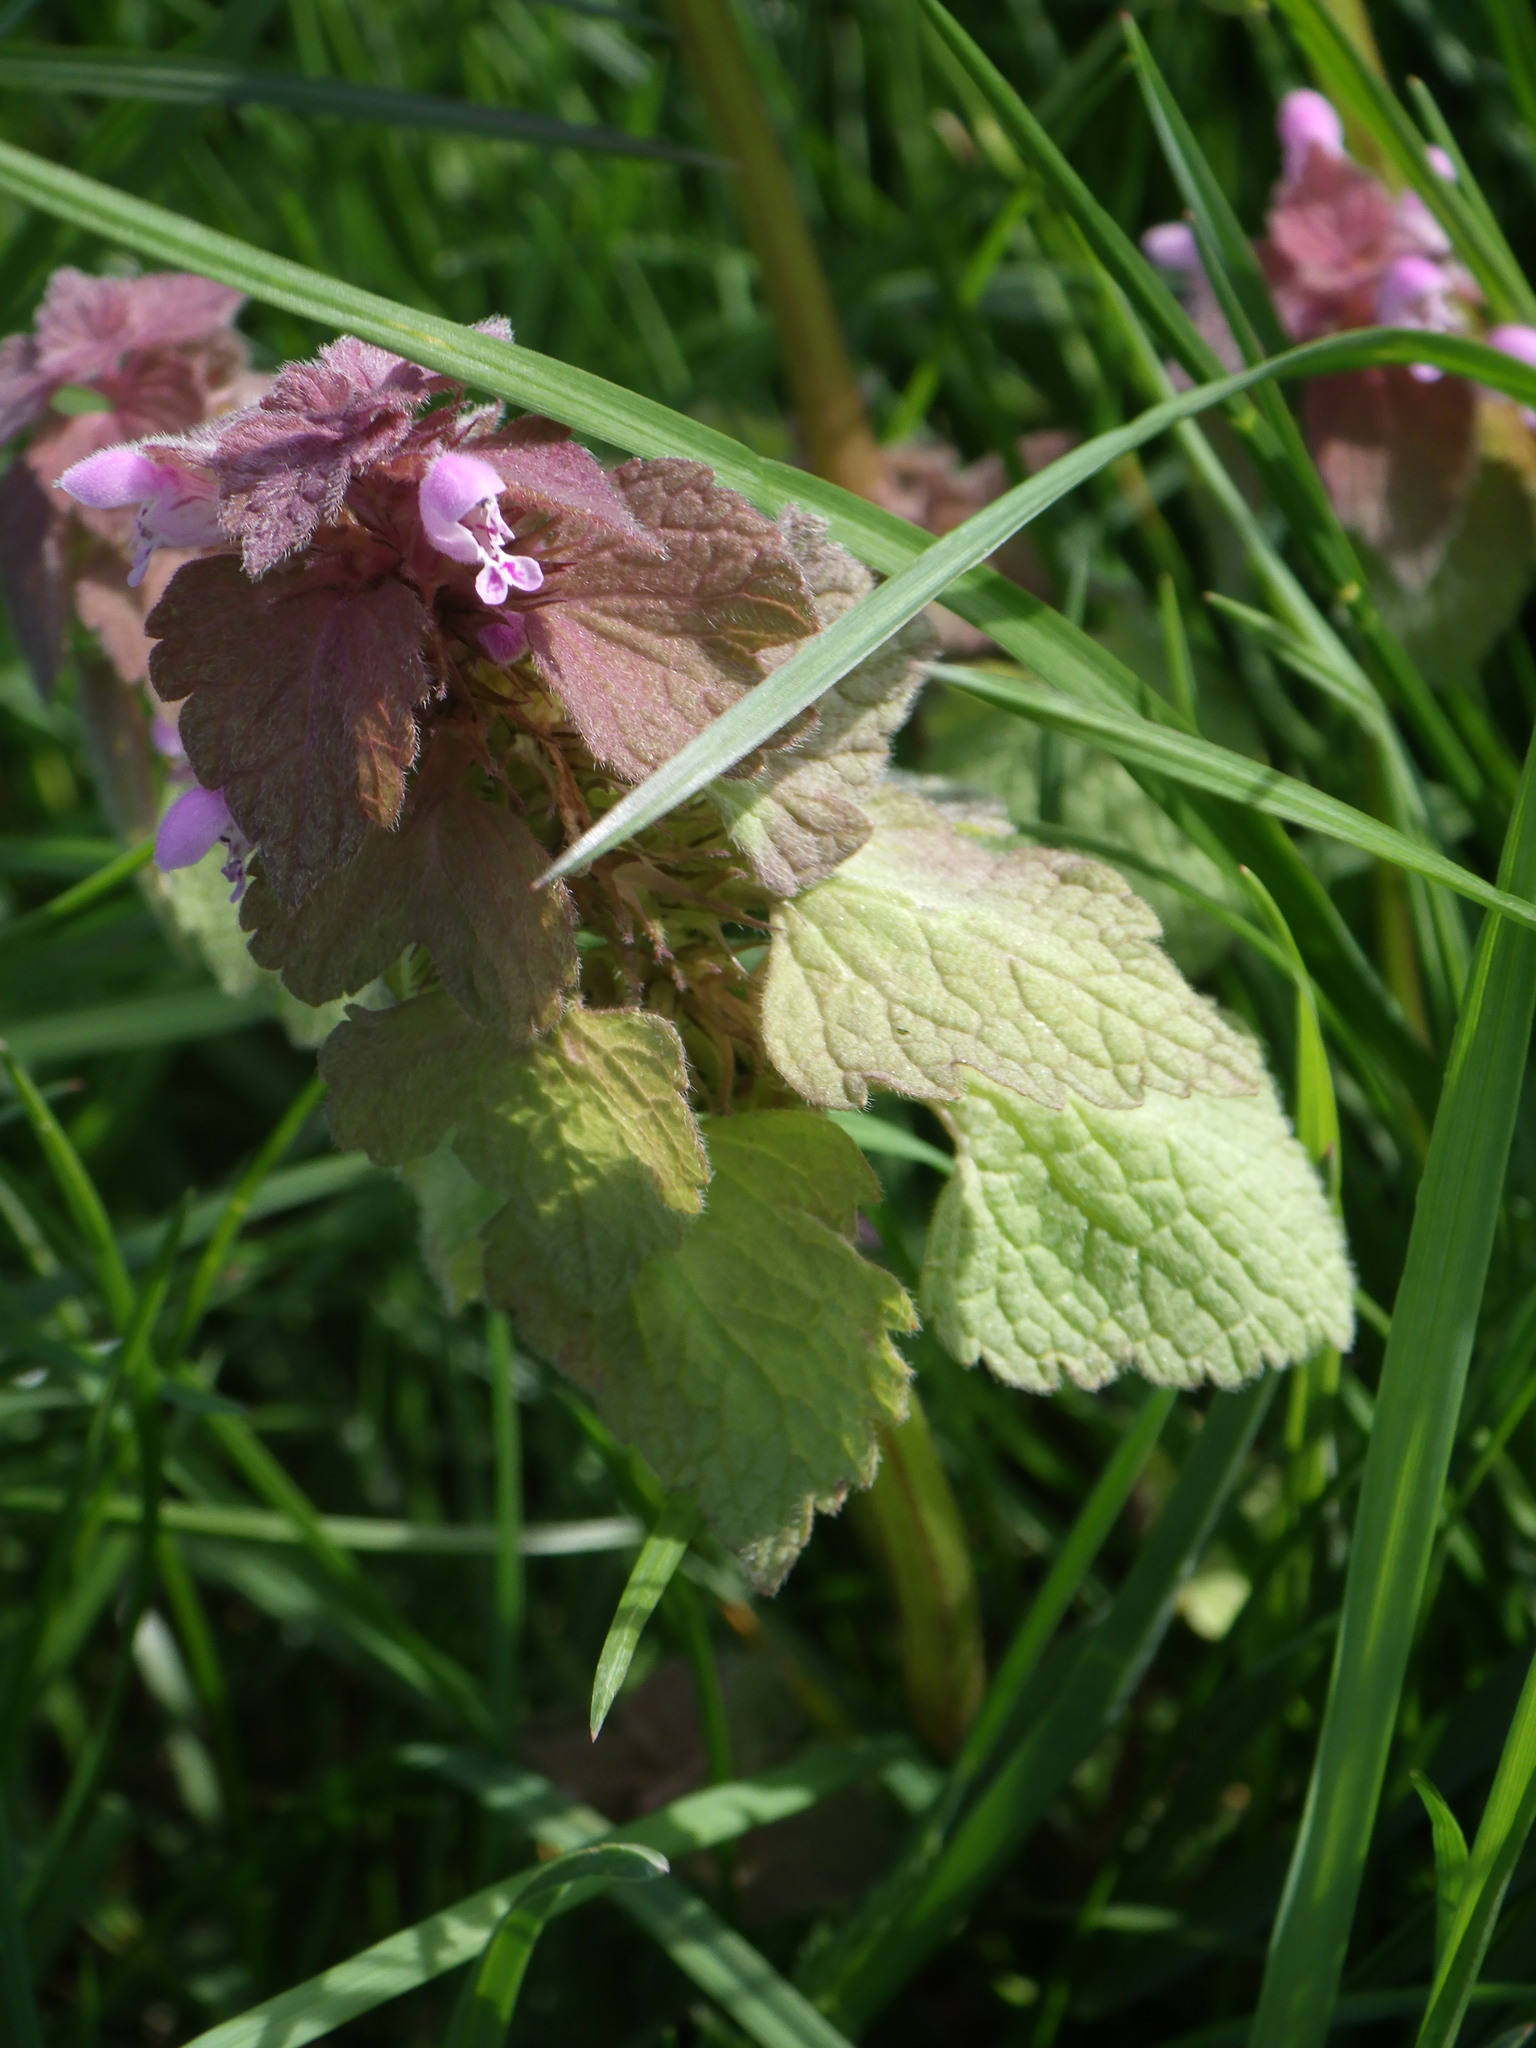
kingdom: Plantae
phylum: Tracheophyta
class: Magnoliopsida
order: Lamiales
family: Lamiaceae
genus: Lamium
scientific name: Lamium purpureum
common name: Red dead-nettle
